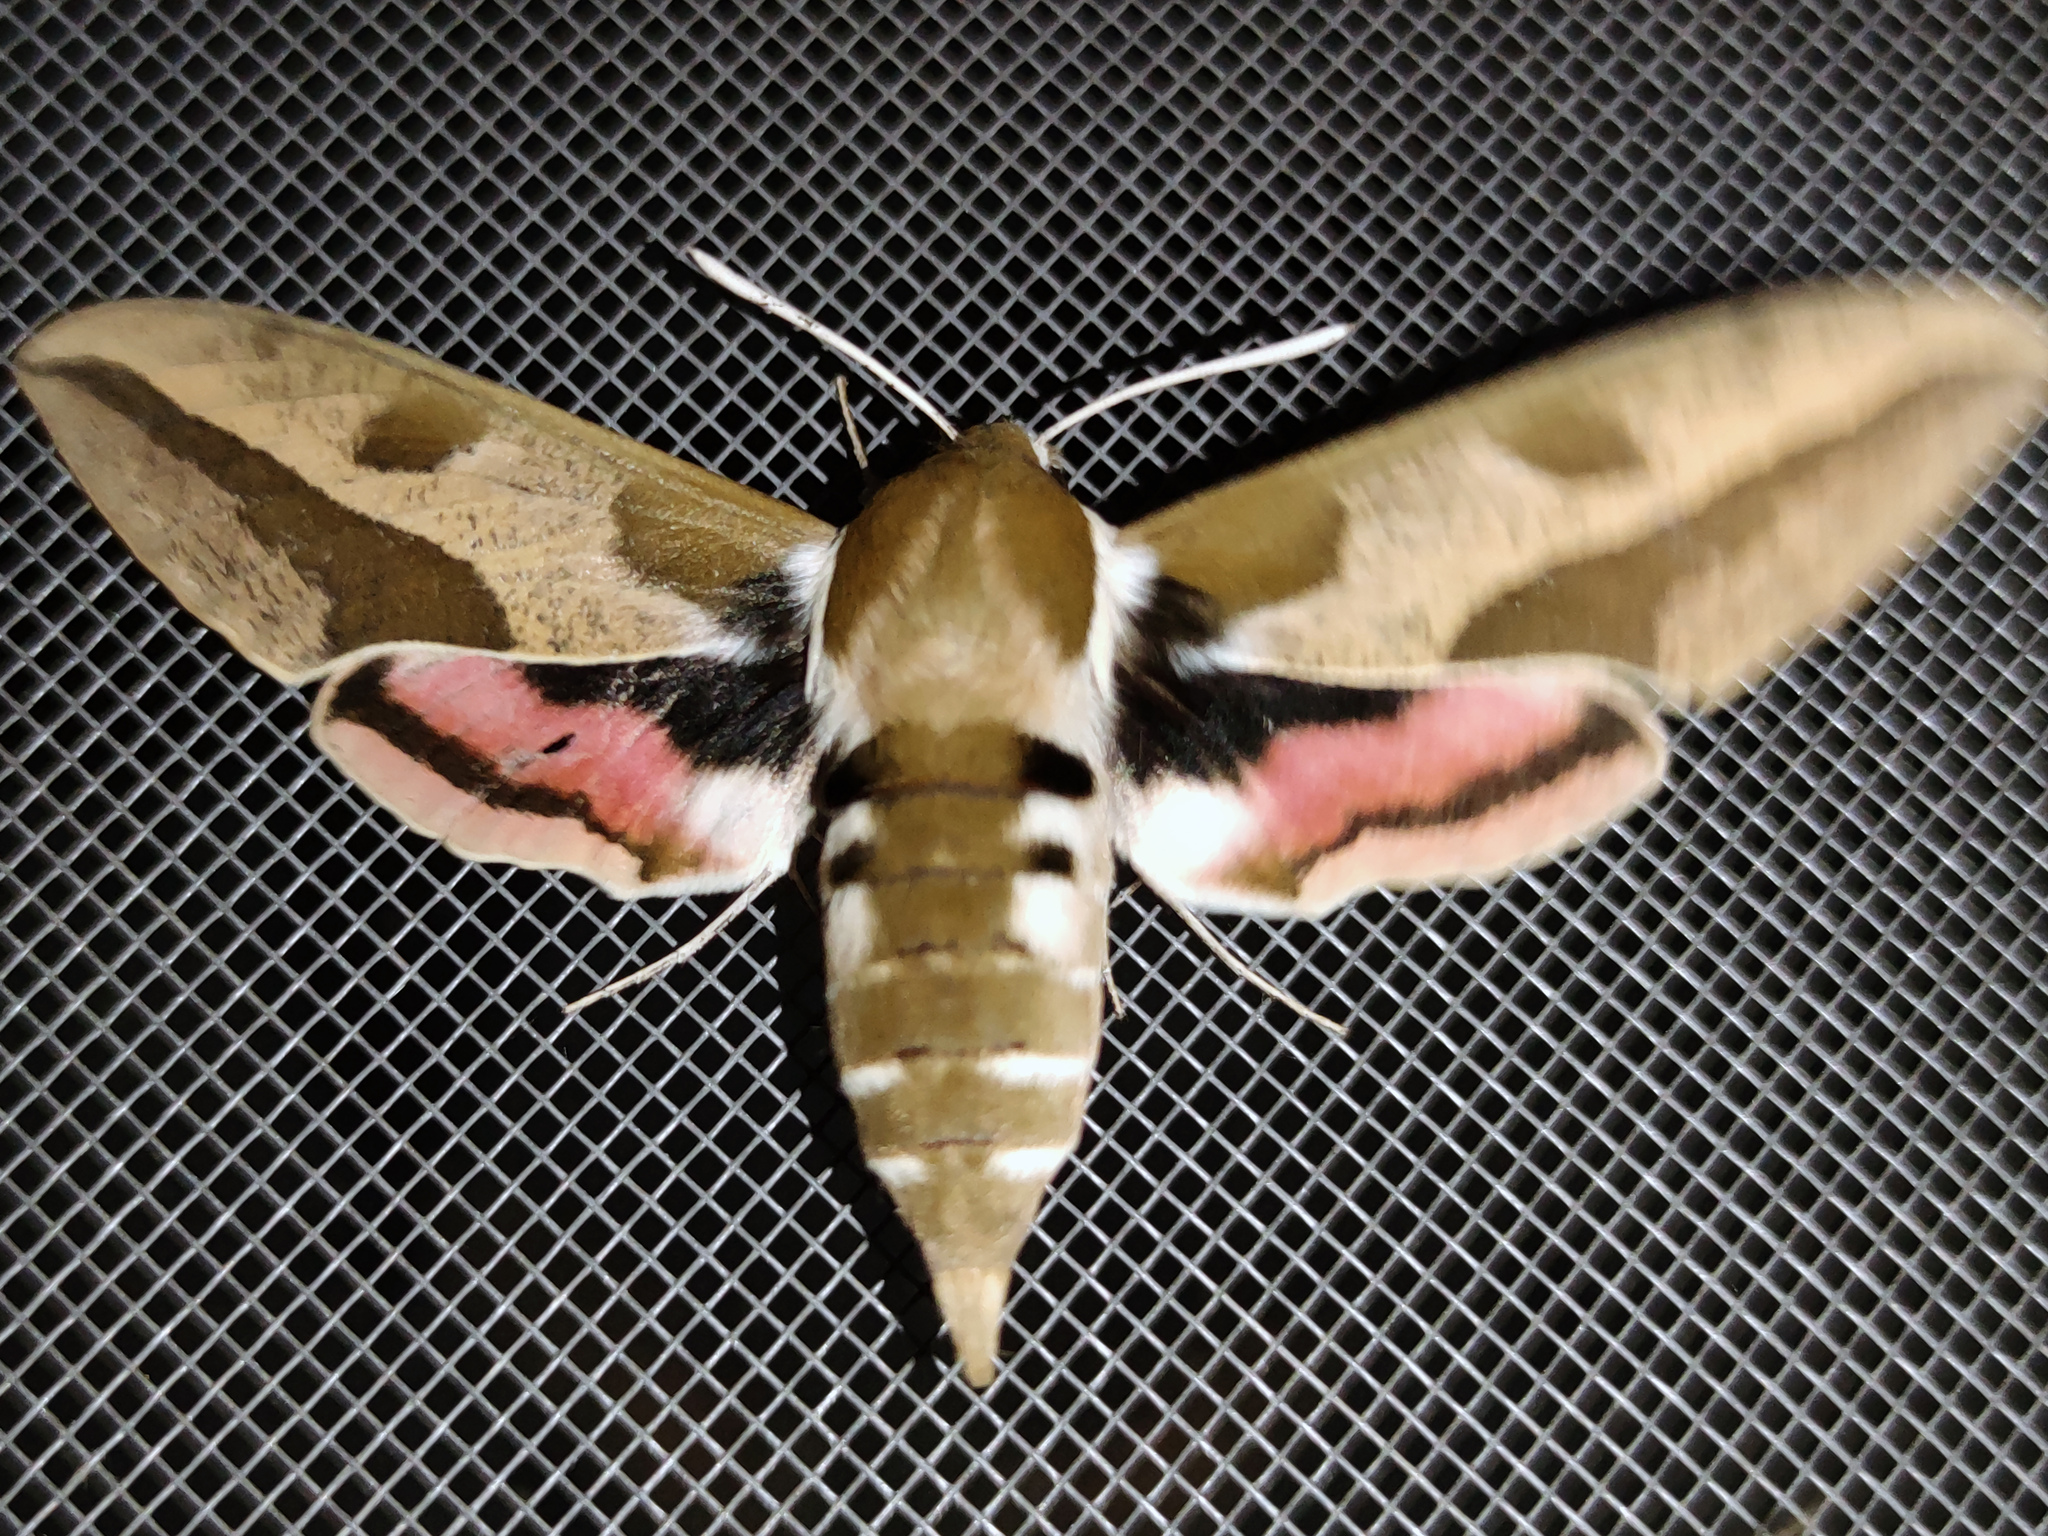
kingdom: Animalia
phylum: Arthropoda
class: Insecta
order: Lepidoptera
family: Sphingidae
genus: Hyles
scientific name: Hyles euphorbiae
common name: Spurge hawk-moth
